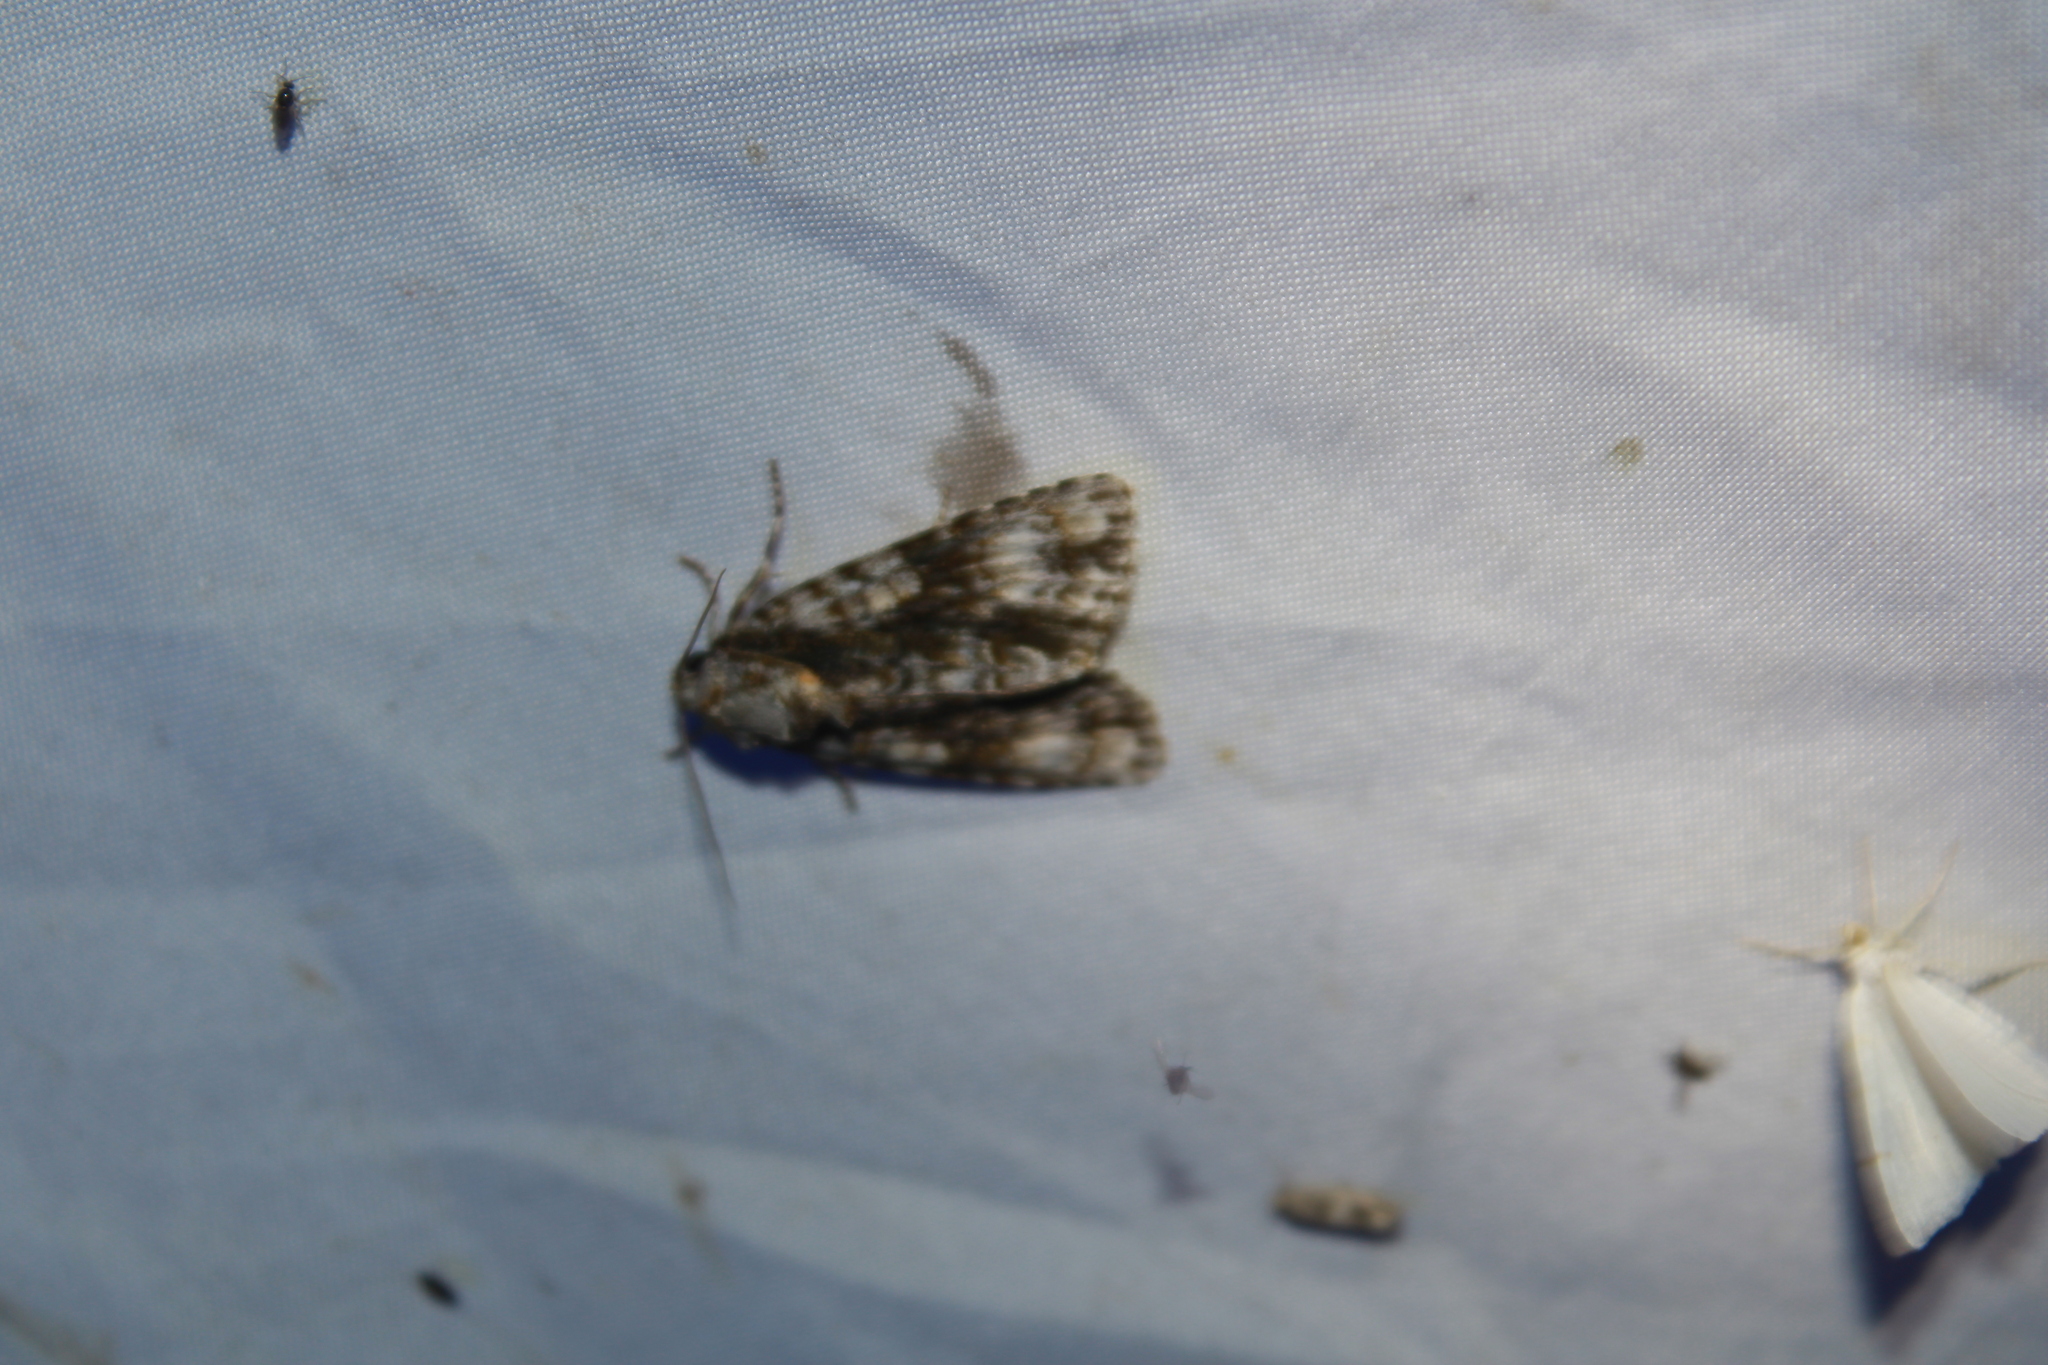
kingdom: Animalia
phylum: Arthropoda
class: Insecta
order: Lepidoptera
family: Noctuidae
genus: Acronicta
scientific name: Acronicta superans
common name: Splendid dagger
